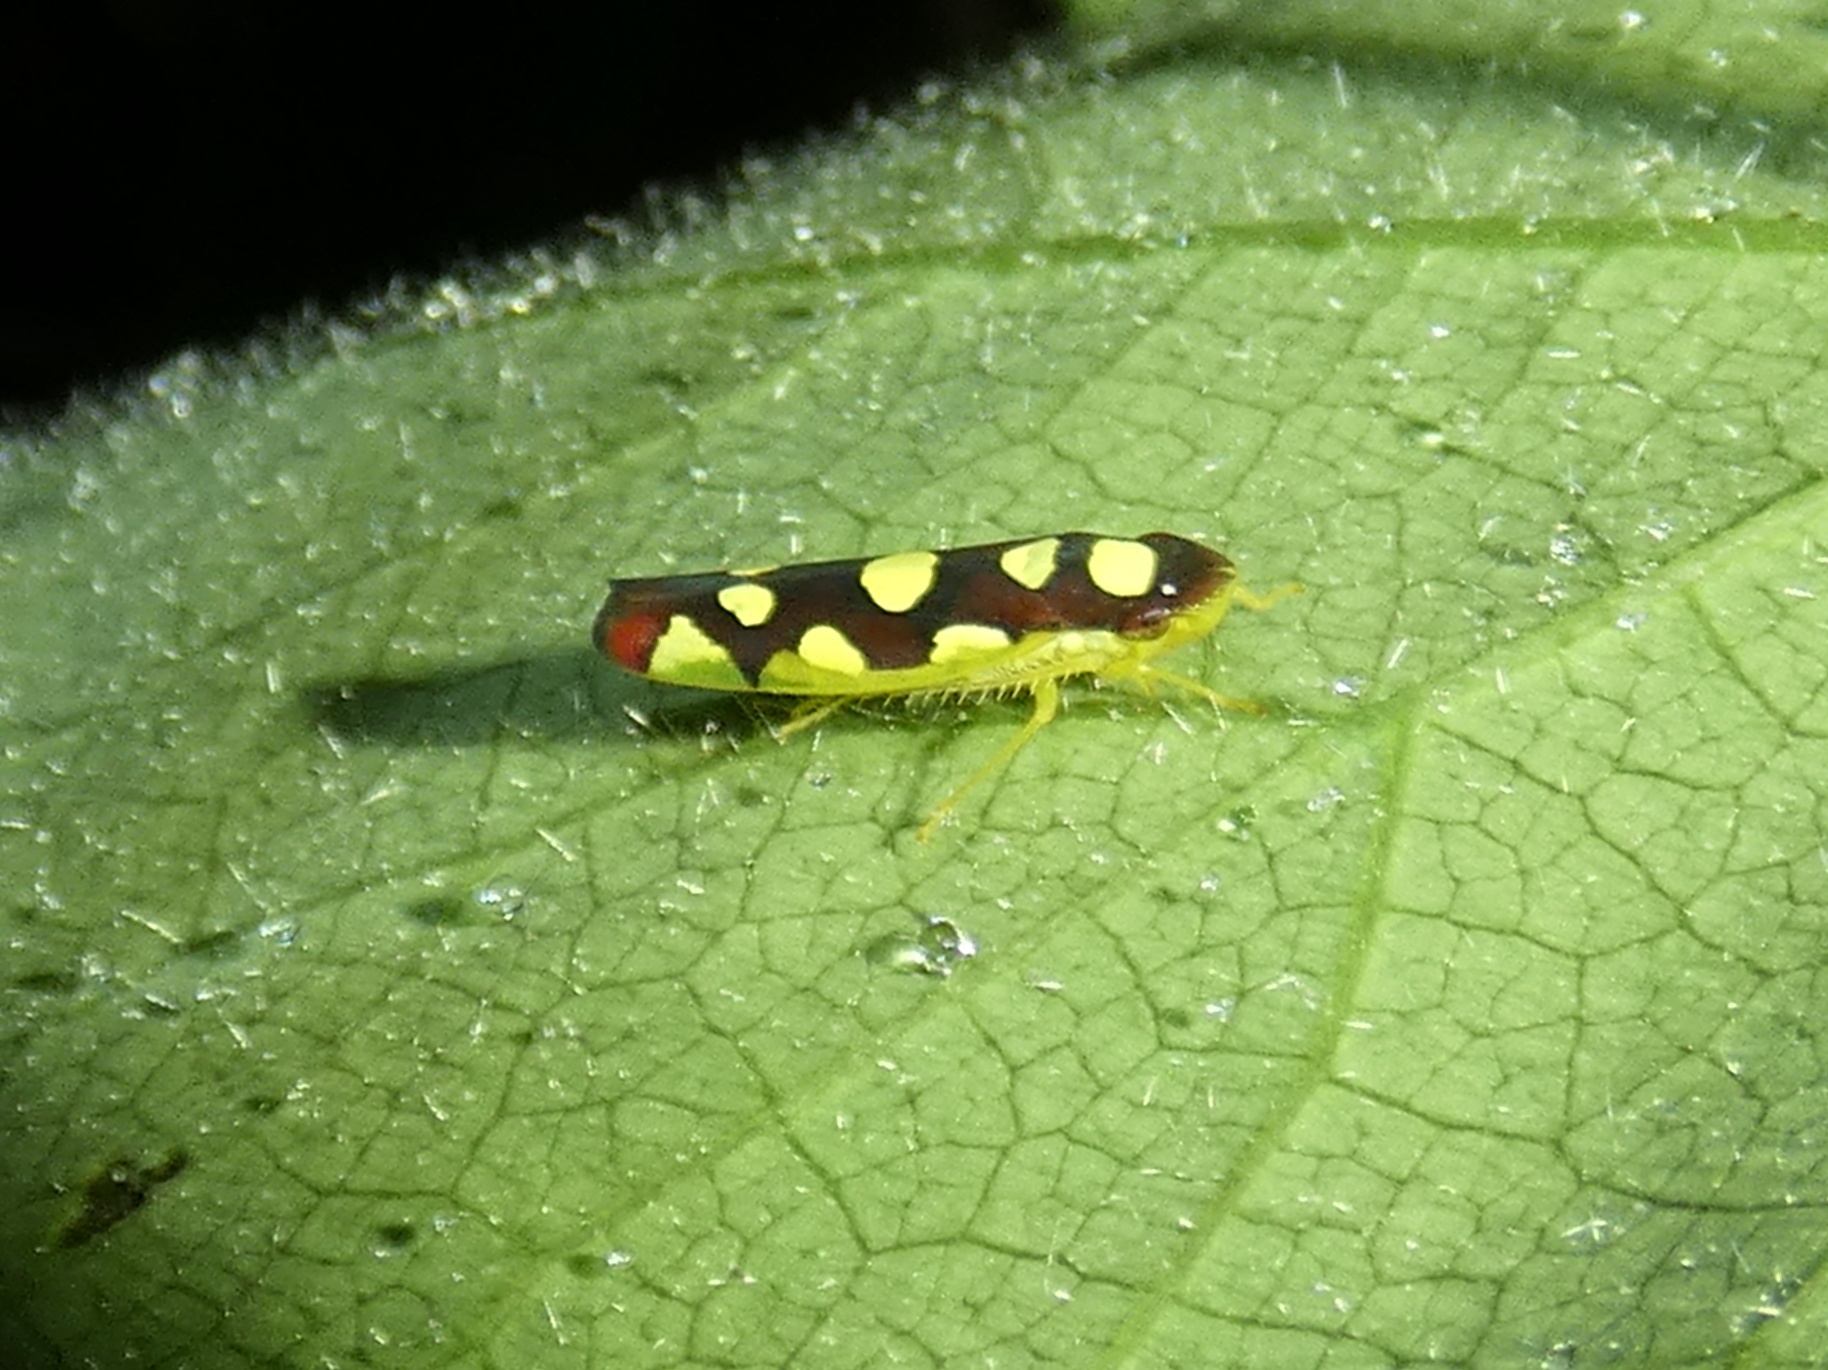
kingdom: Animalia
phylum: Arthropoda
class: Insecta
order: Hemiptera
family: Cicadellidae
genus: Baleja
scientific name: Baleja flavoguttata
